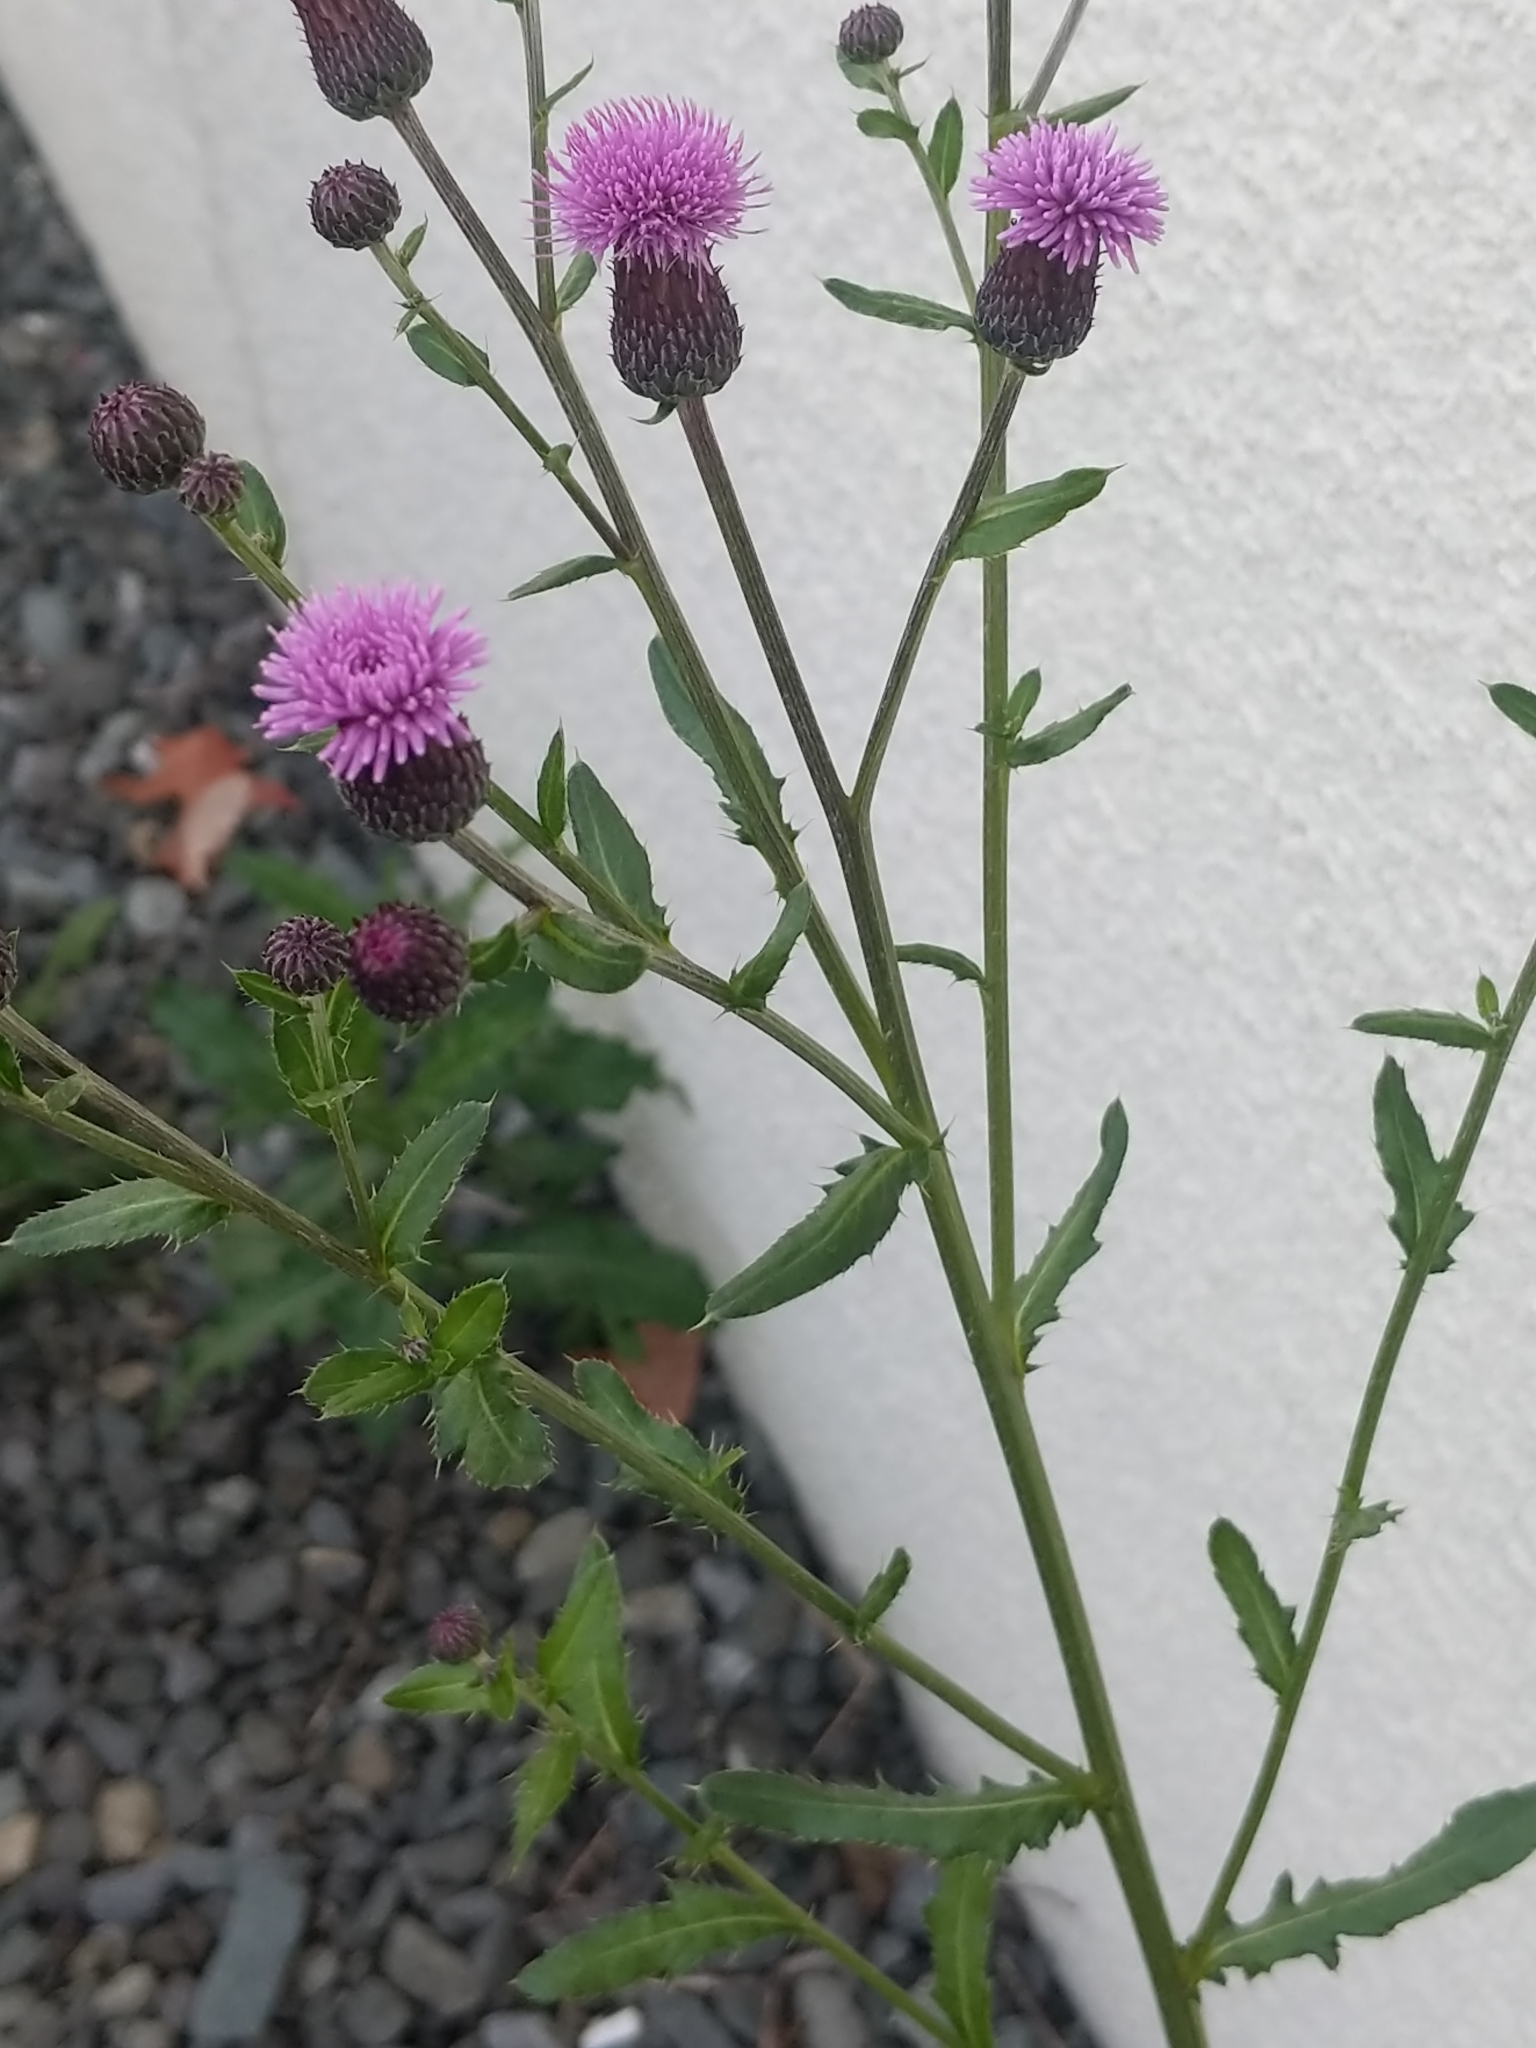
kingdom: Plantae
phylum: Tracheophyta
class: Magnoliopsida
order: Asterales
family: Asteraceae
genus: Cirsium
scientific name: Cirsium arvense
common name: Creeping thistle
